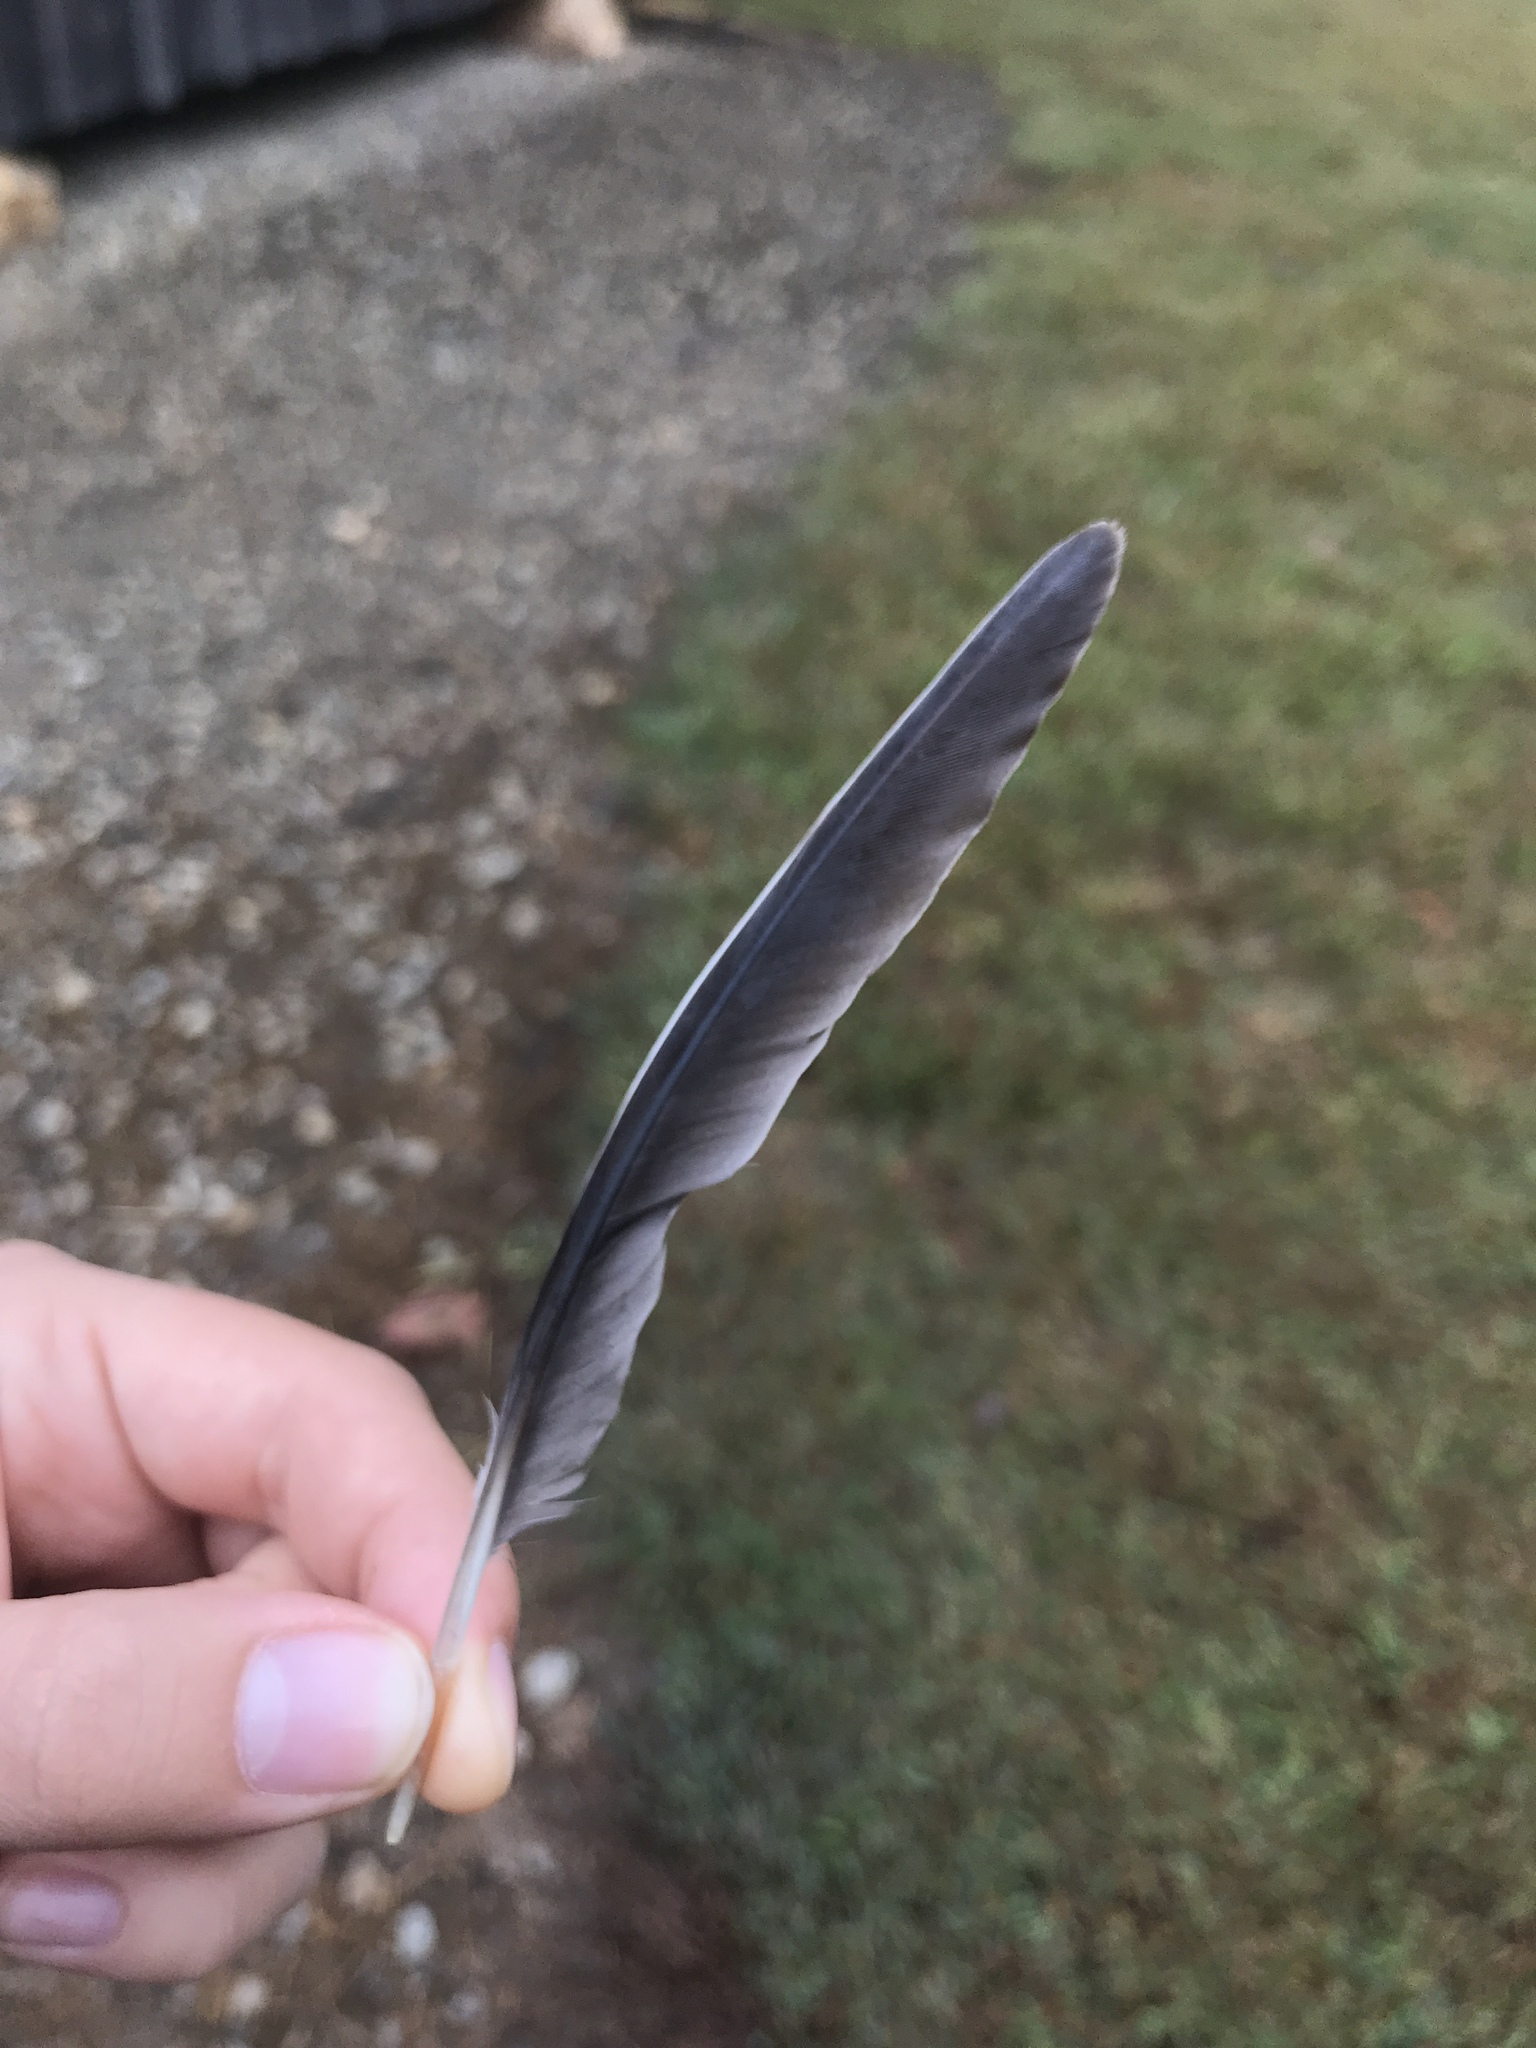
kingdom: Animalia
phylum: Chordata
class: Aves
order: Columbiformes
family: Columbidae
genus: Zenaida
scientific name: Zenaida macroura
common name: Mourning dove
